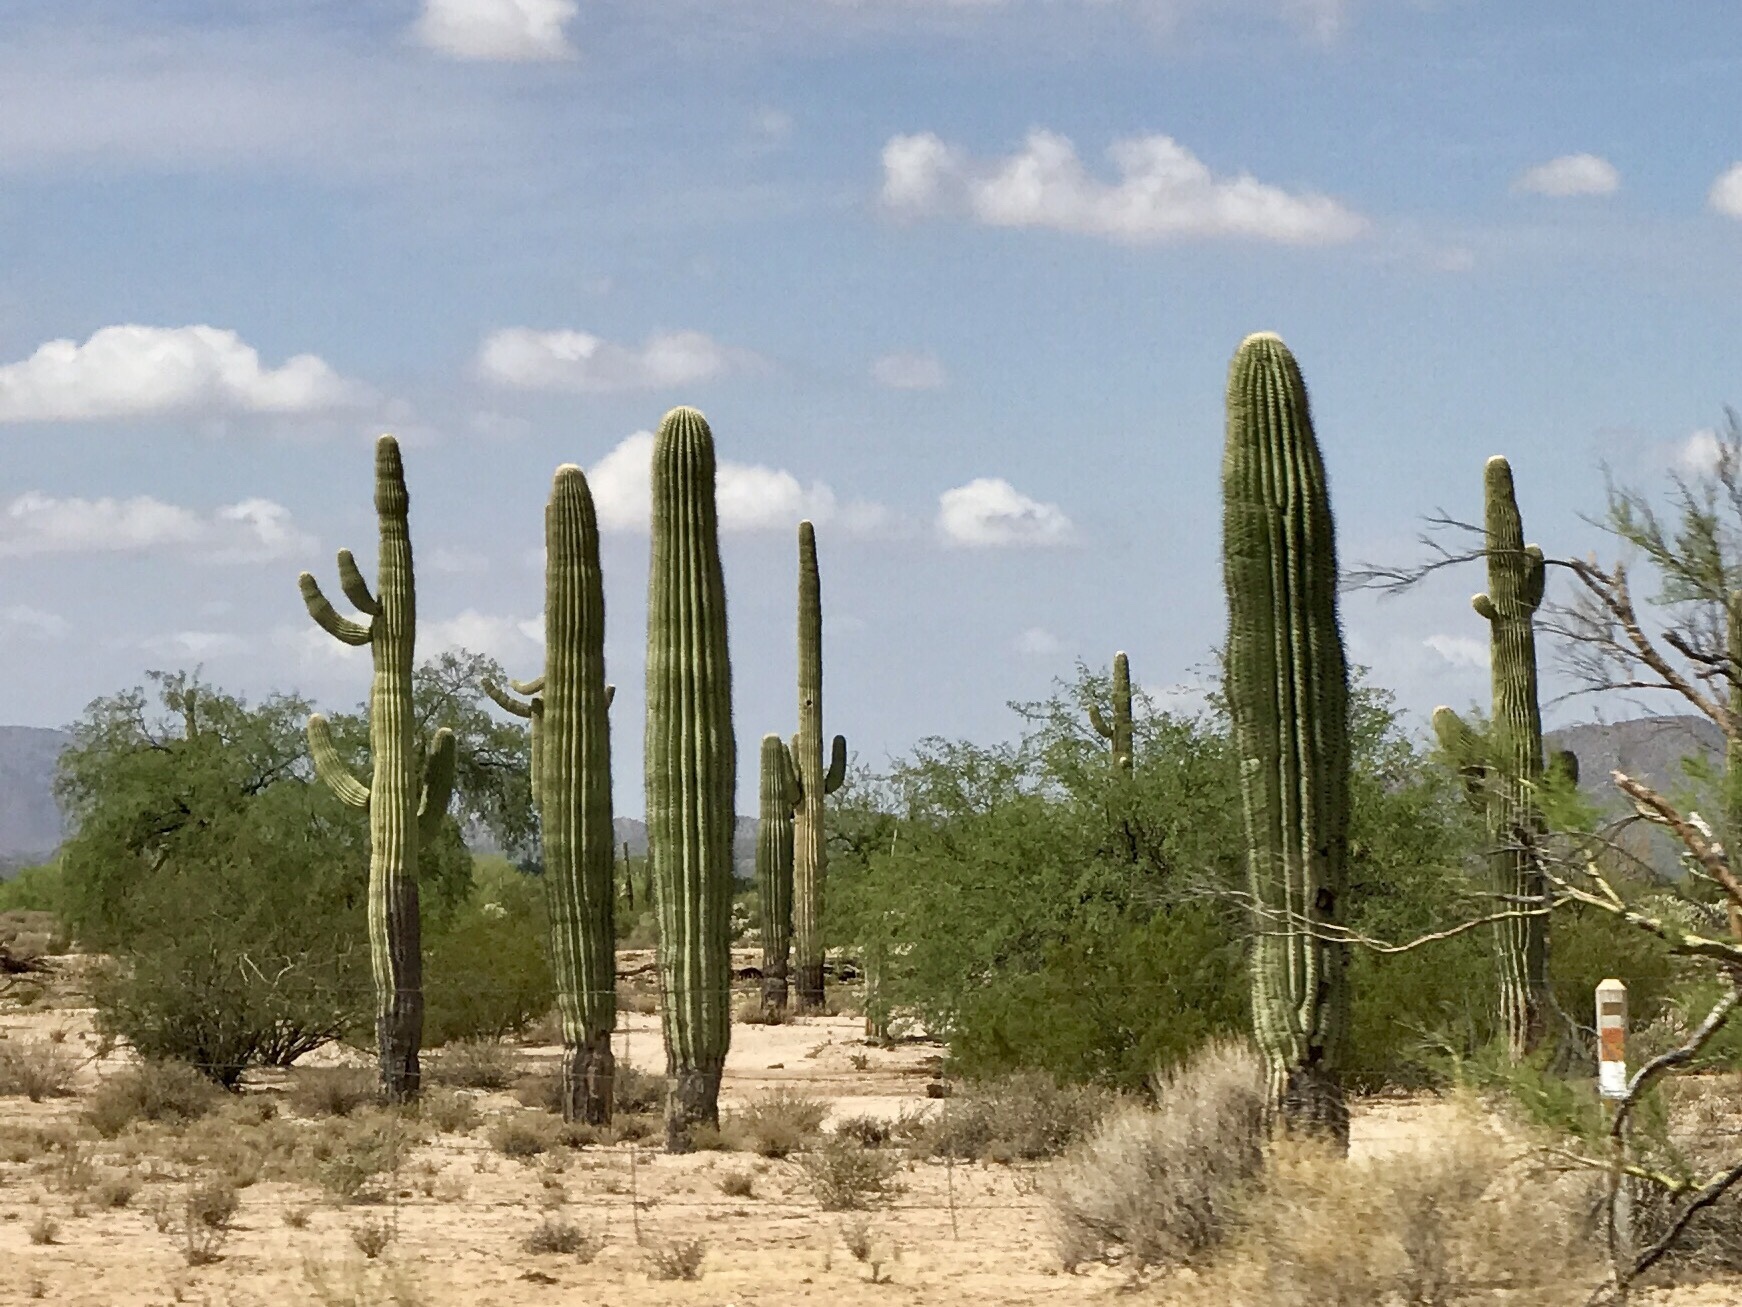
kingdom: Plantae
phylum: Tracheophyta
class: Magnoliopsida
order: Caryophyllales
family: Cactaceae
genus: Carnegiea
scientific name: Carnegiea gigantea
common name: Saguaro
